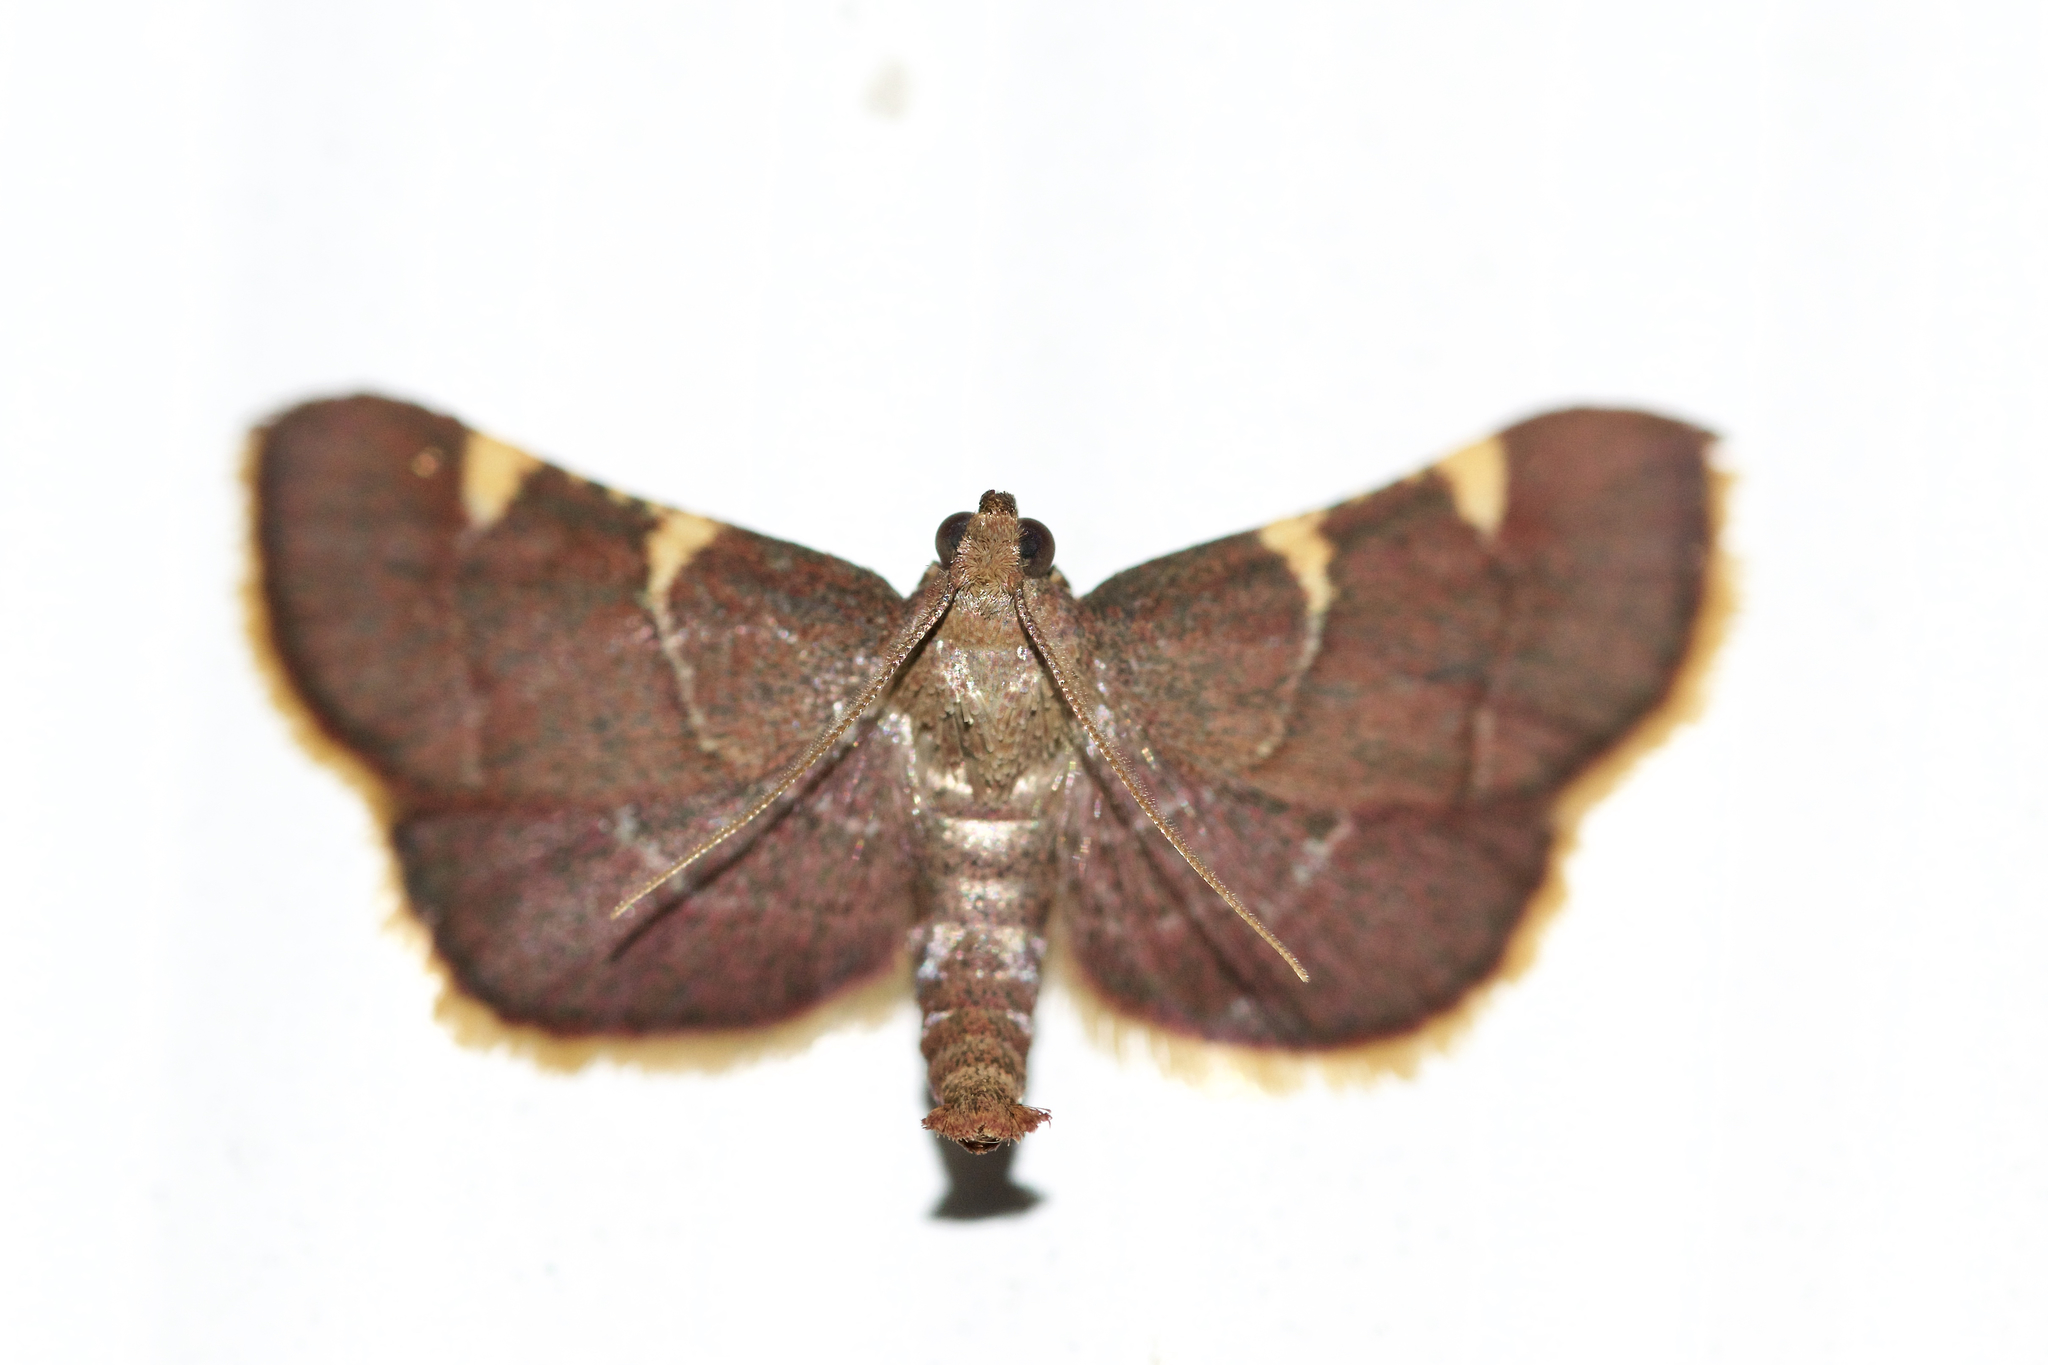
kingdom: Animalia
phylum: Arthropoda
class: Insecta
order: Lepidoptera
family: Pyralidae
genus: Hypsopygia
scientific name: Hypsopygia olinalis
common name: Yellow-fringed dolichomia moth
